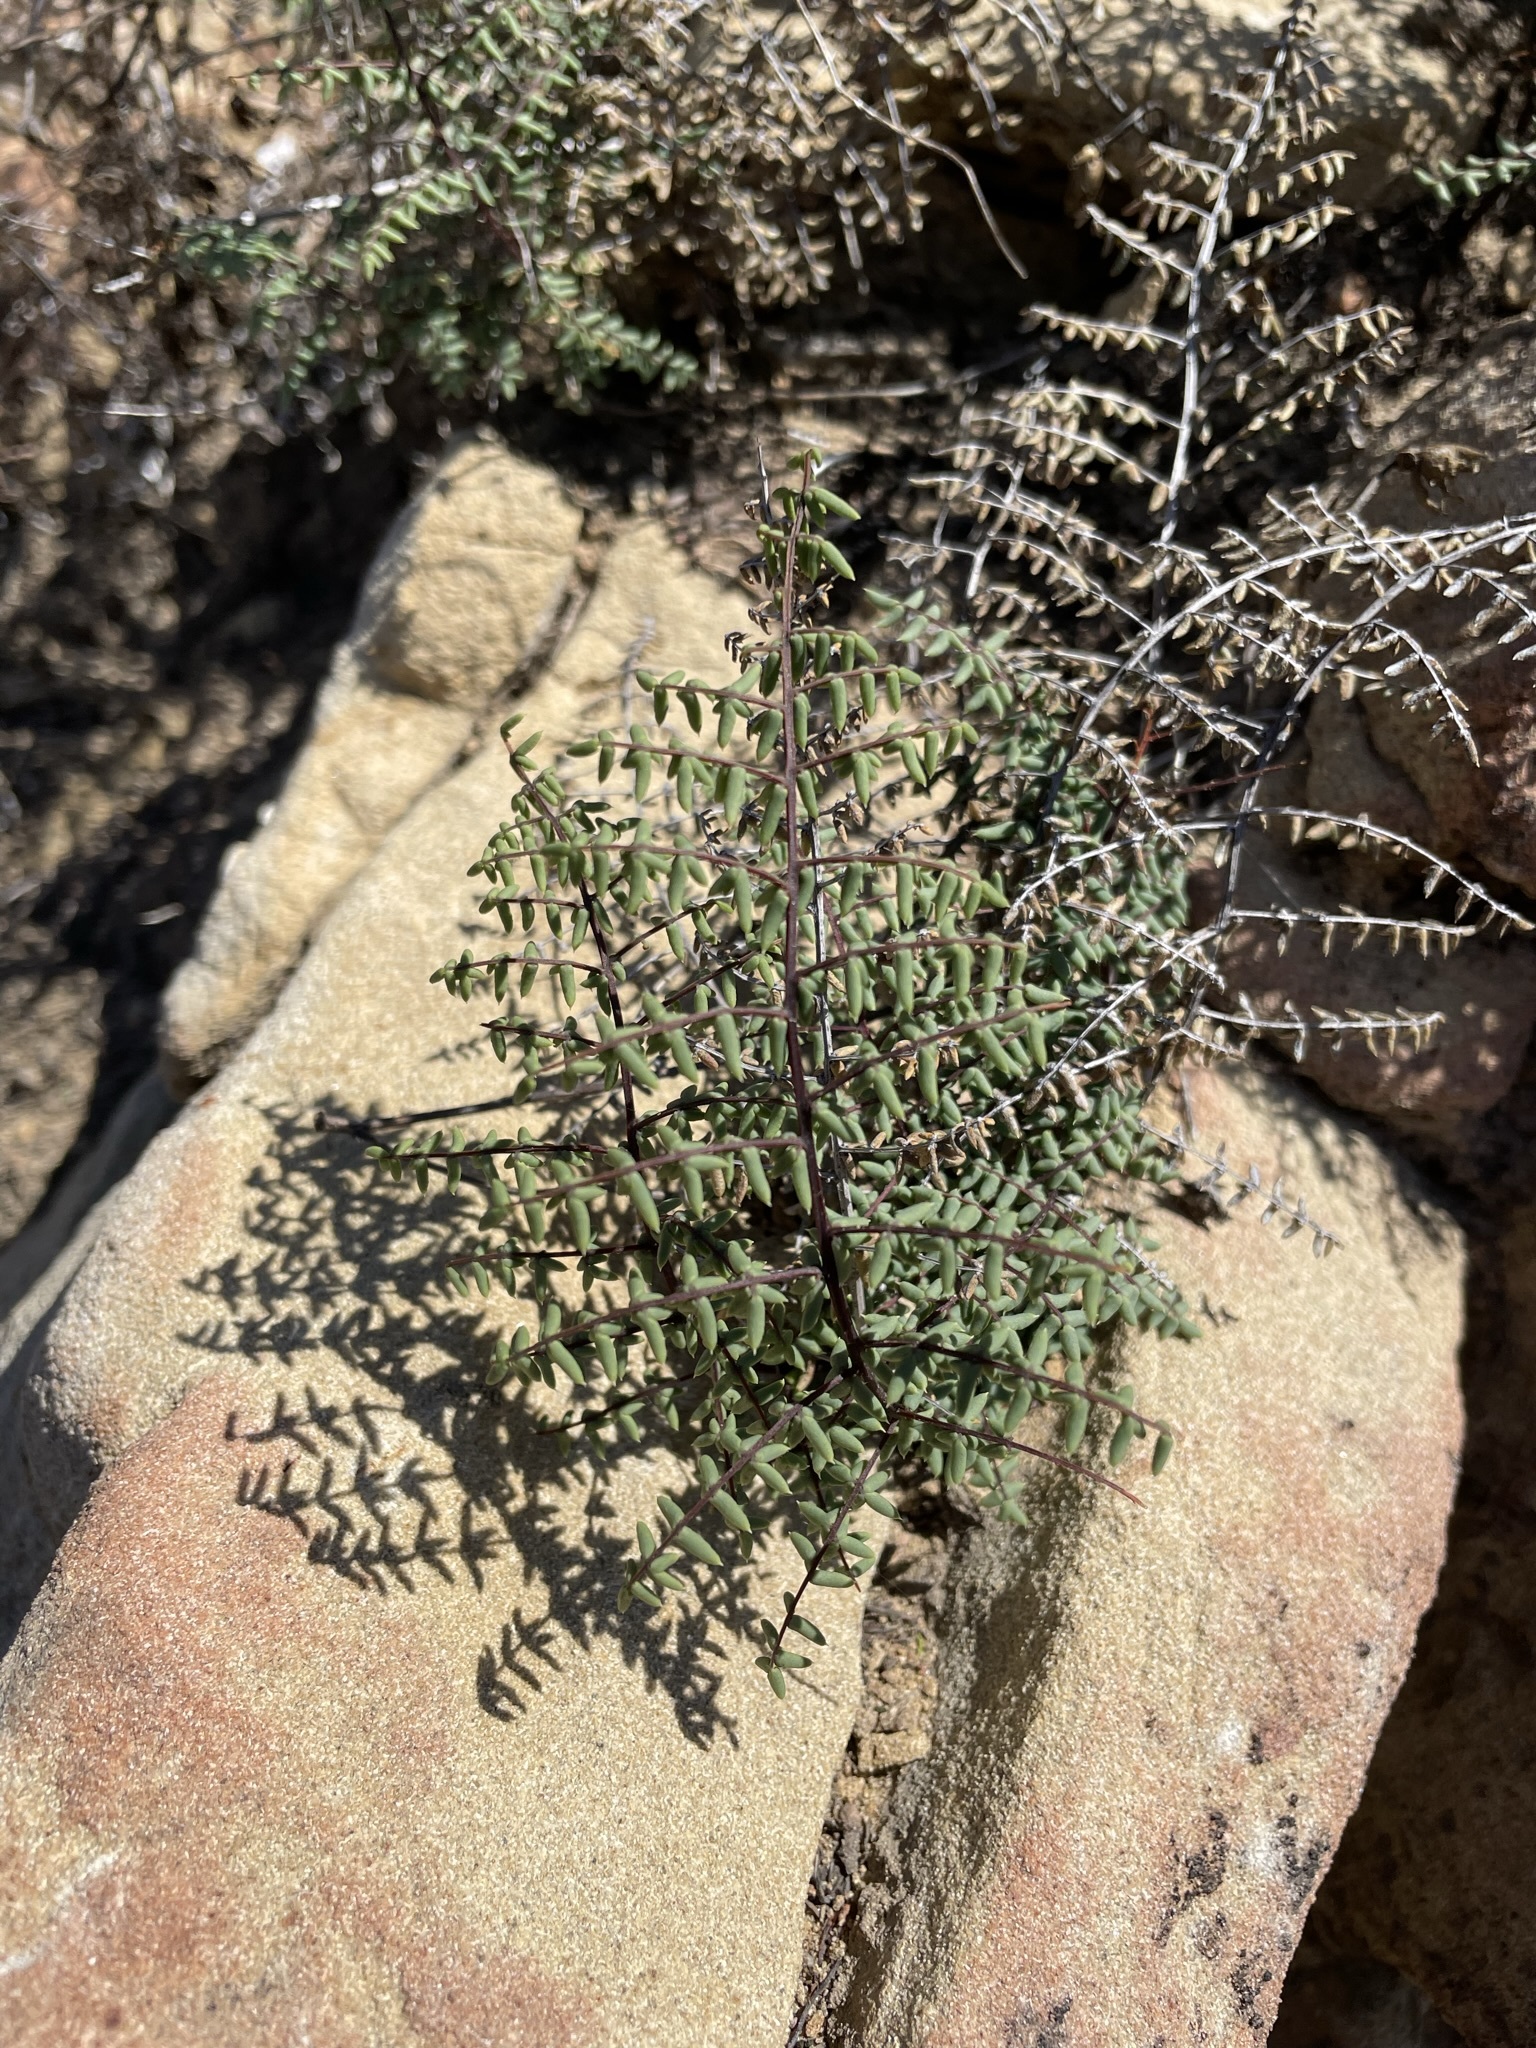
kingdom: Plantae
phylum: Tracheophyta
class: Polypodiopsida
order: Polypodiales
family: Pteridaceae
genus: Pellaea
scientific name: Pellaea mucronata
